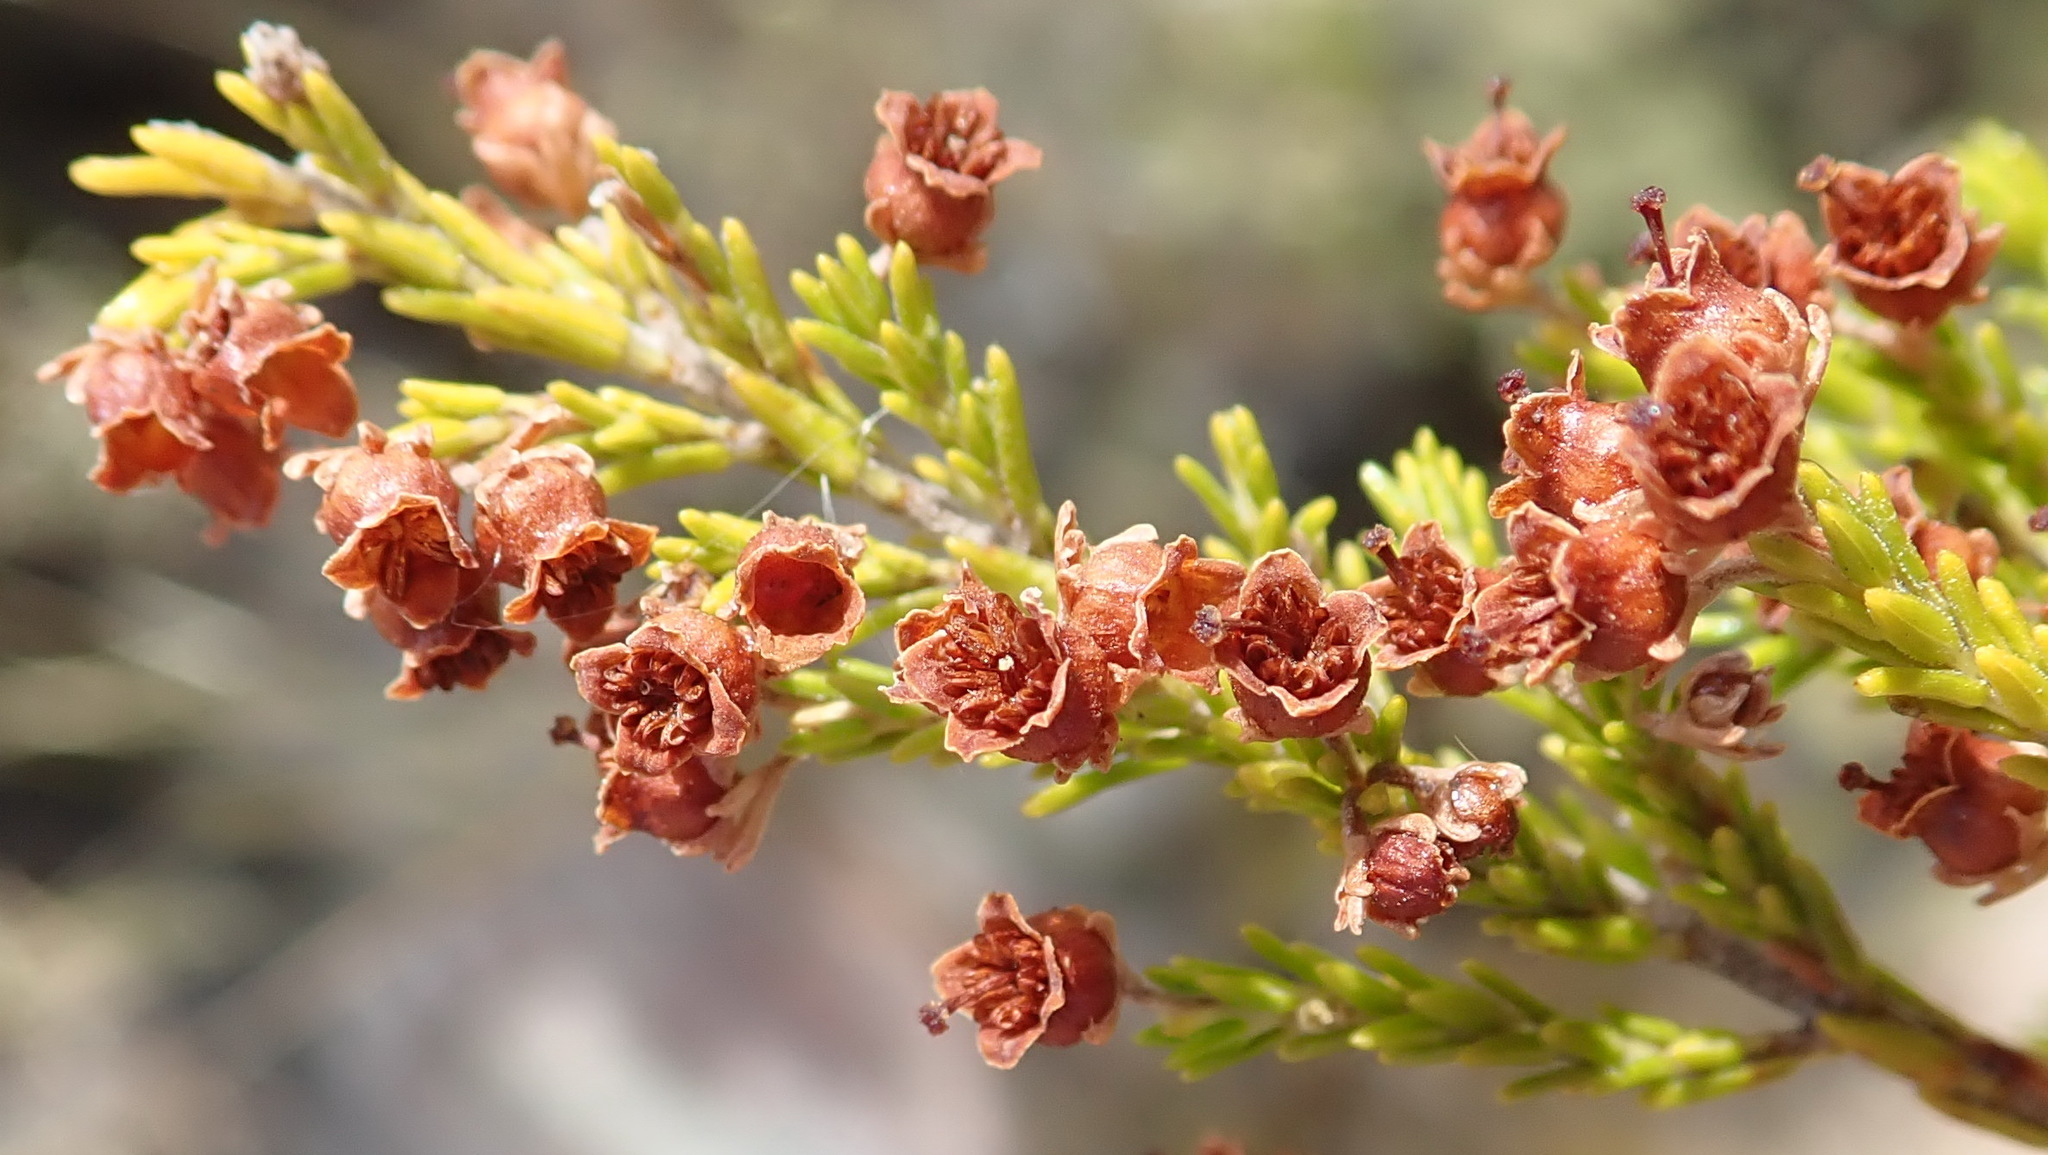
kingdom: Plantae
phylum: Tracheophyta
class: Magnoliopsida
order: Ericales
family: Ericaceae
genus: Erica
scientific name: Erica zwartbergensis
